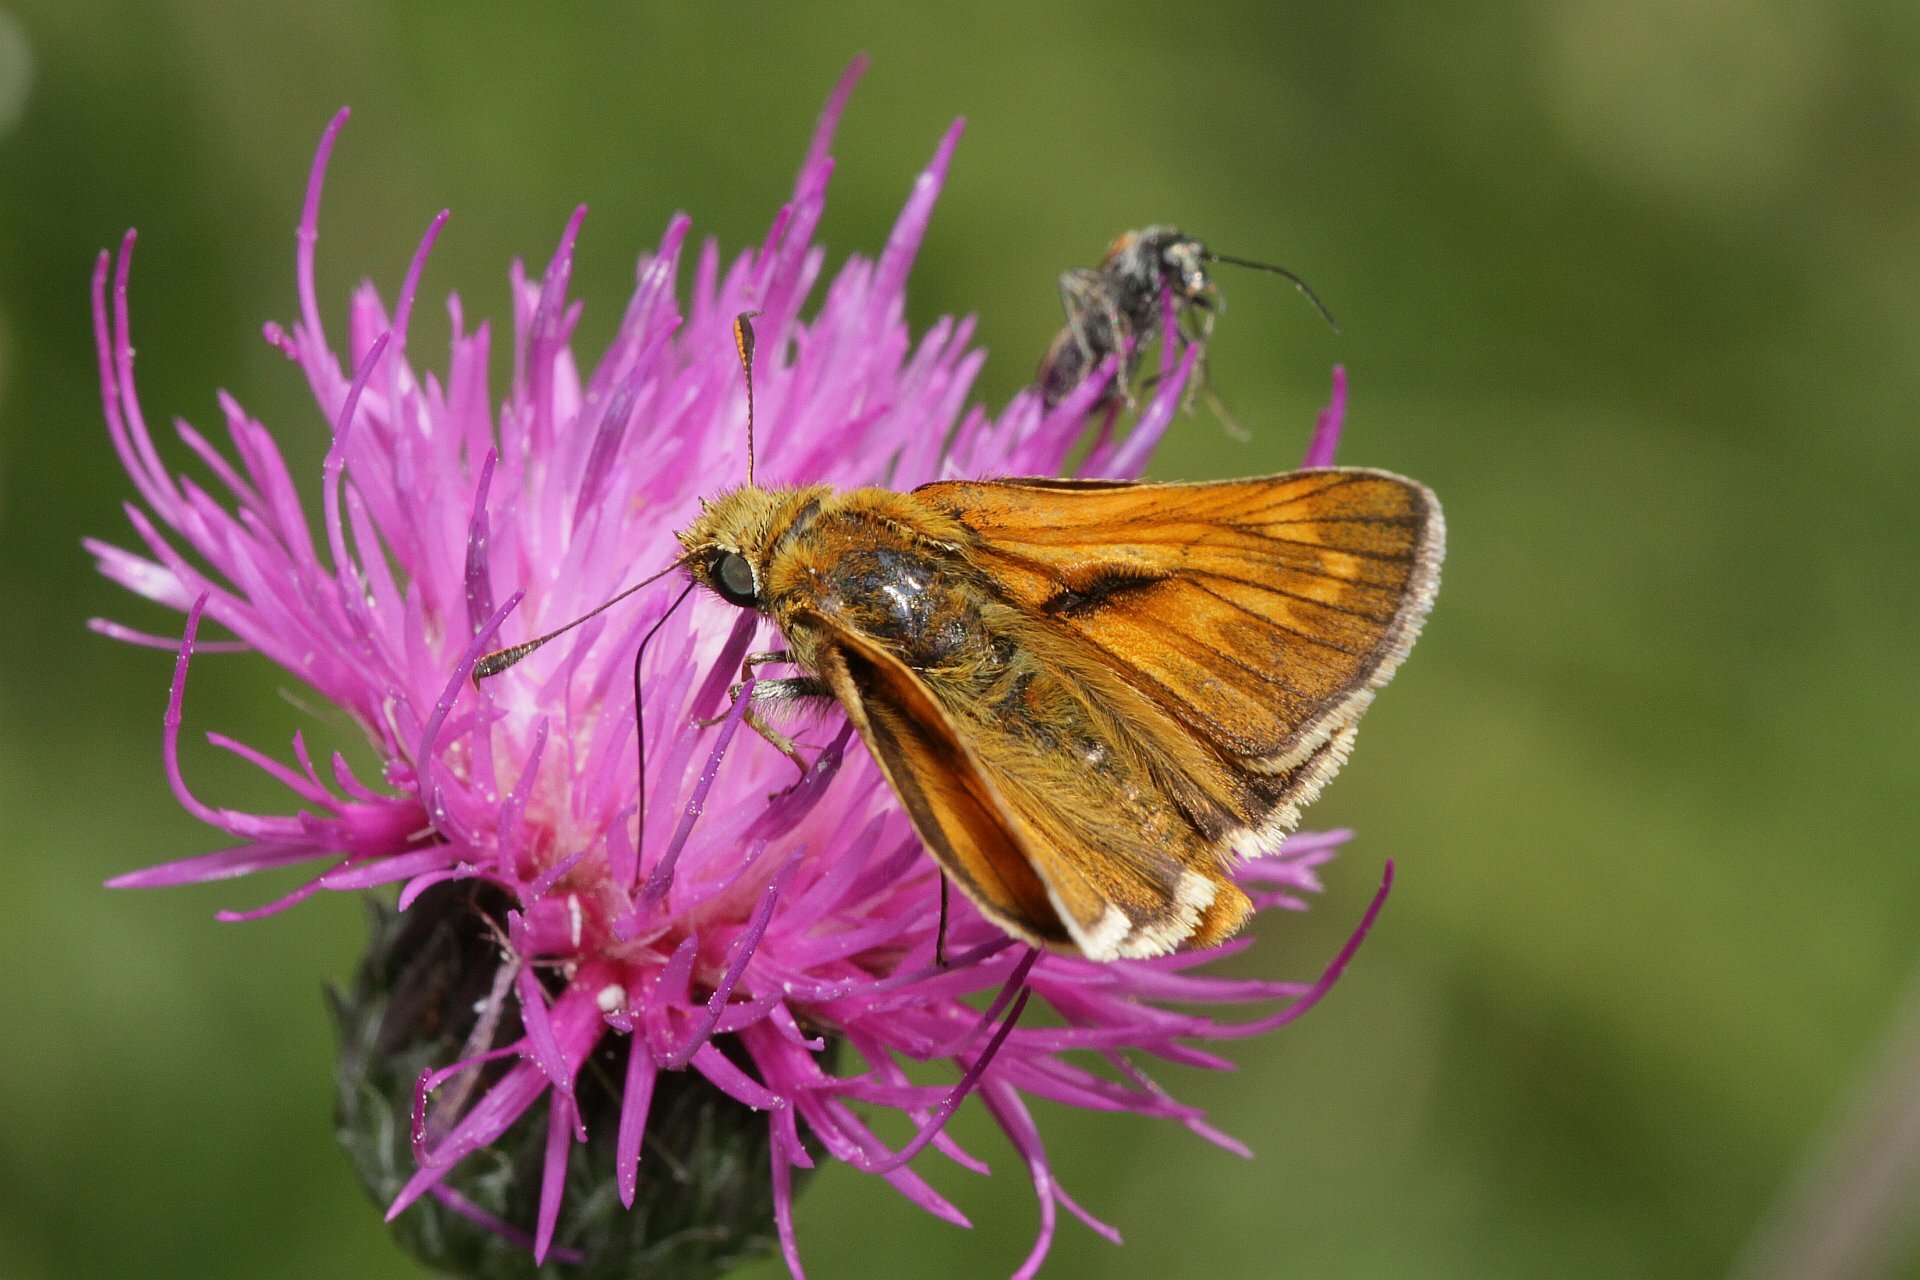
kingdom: Animalia
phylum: Arthropoda
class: Insecta
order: Lepidoptera
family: Hesperiidae
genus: Ochlodes
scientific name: Ochlodes venata
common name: Large skipper
